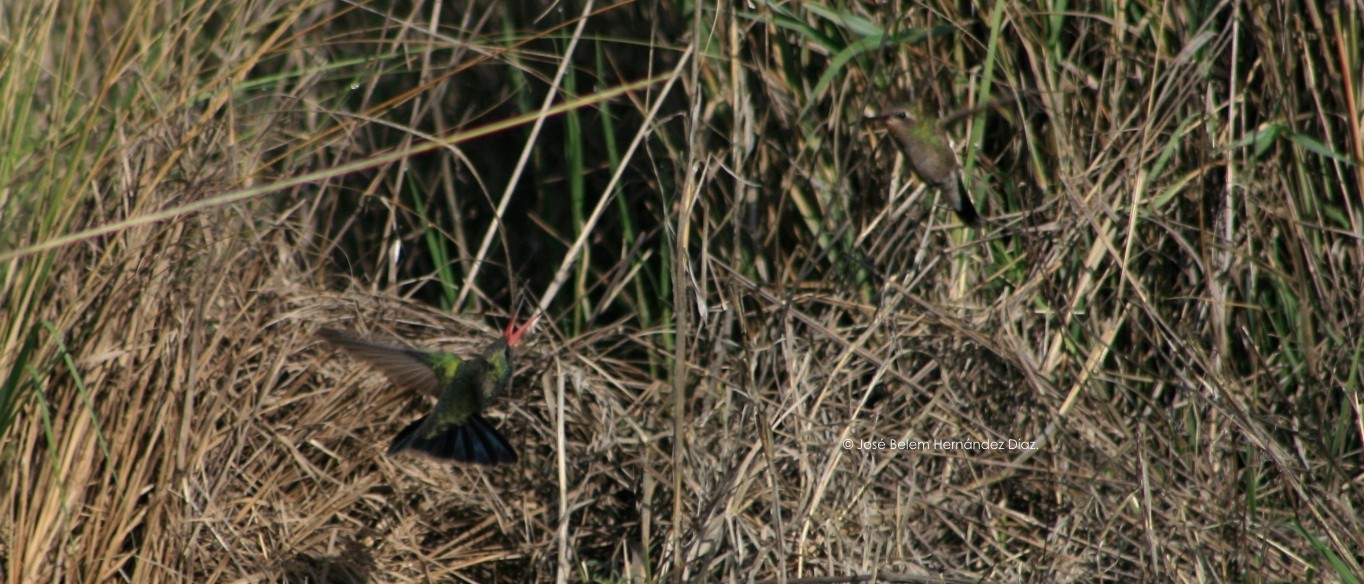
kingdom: Animalia
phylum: Chordata
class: Aves
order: Apodiformes
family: Trochilidae
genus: Cynanthus
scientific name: Cynanthus latirostris
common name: Broad-billed hummingbird
